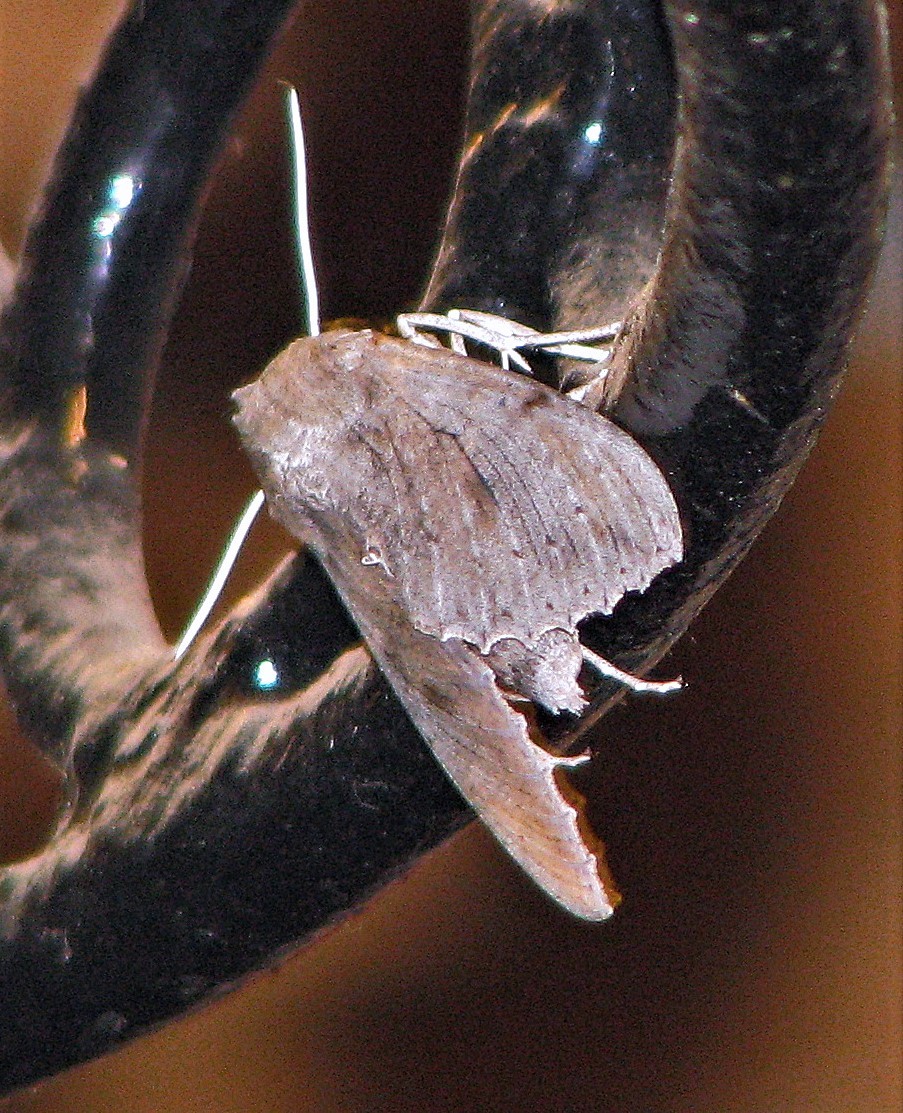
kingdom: Animalia
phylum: Arthropoda
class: Insecta
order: Lepidoptera
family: Sphingidae
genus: Erinnyis
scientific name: Erinnyis ello
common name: Ello sphinx
